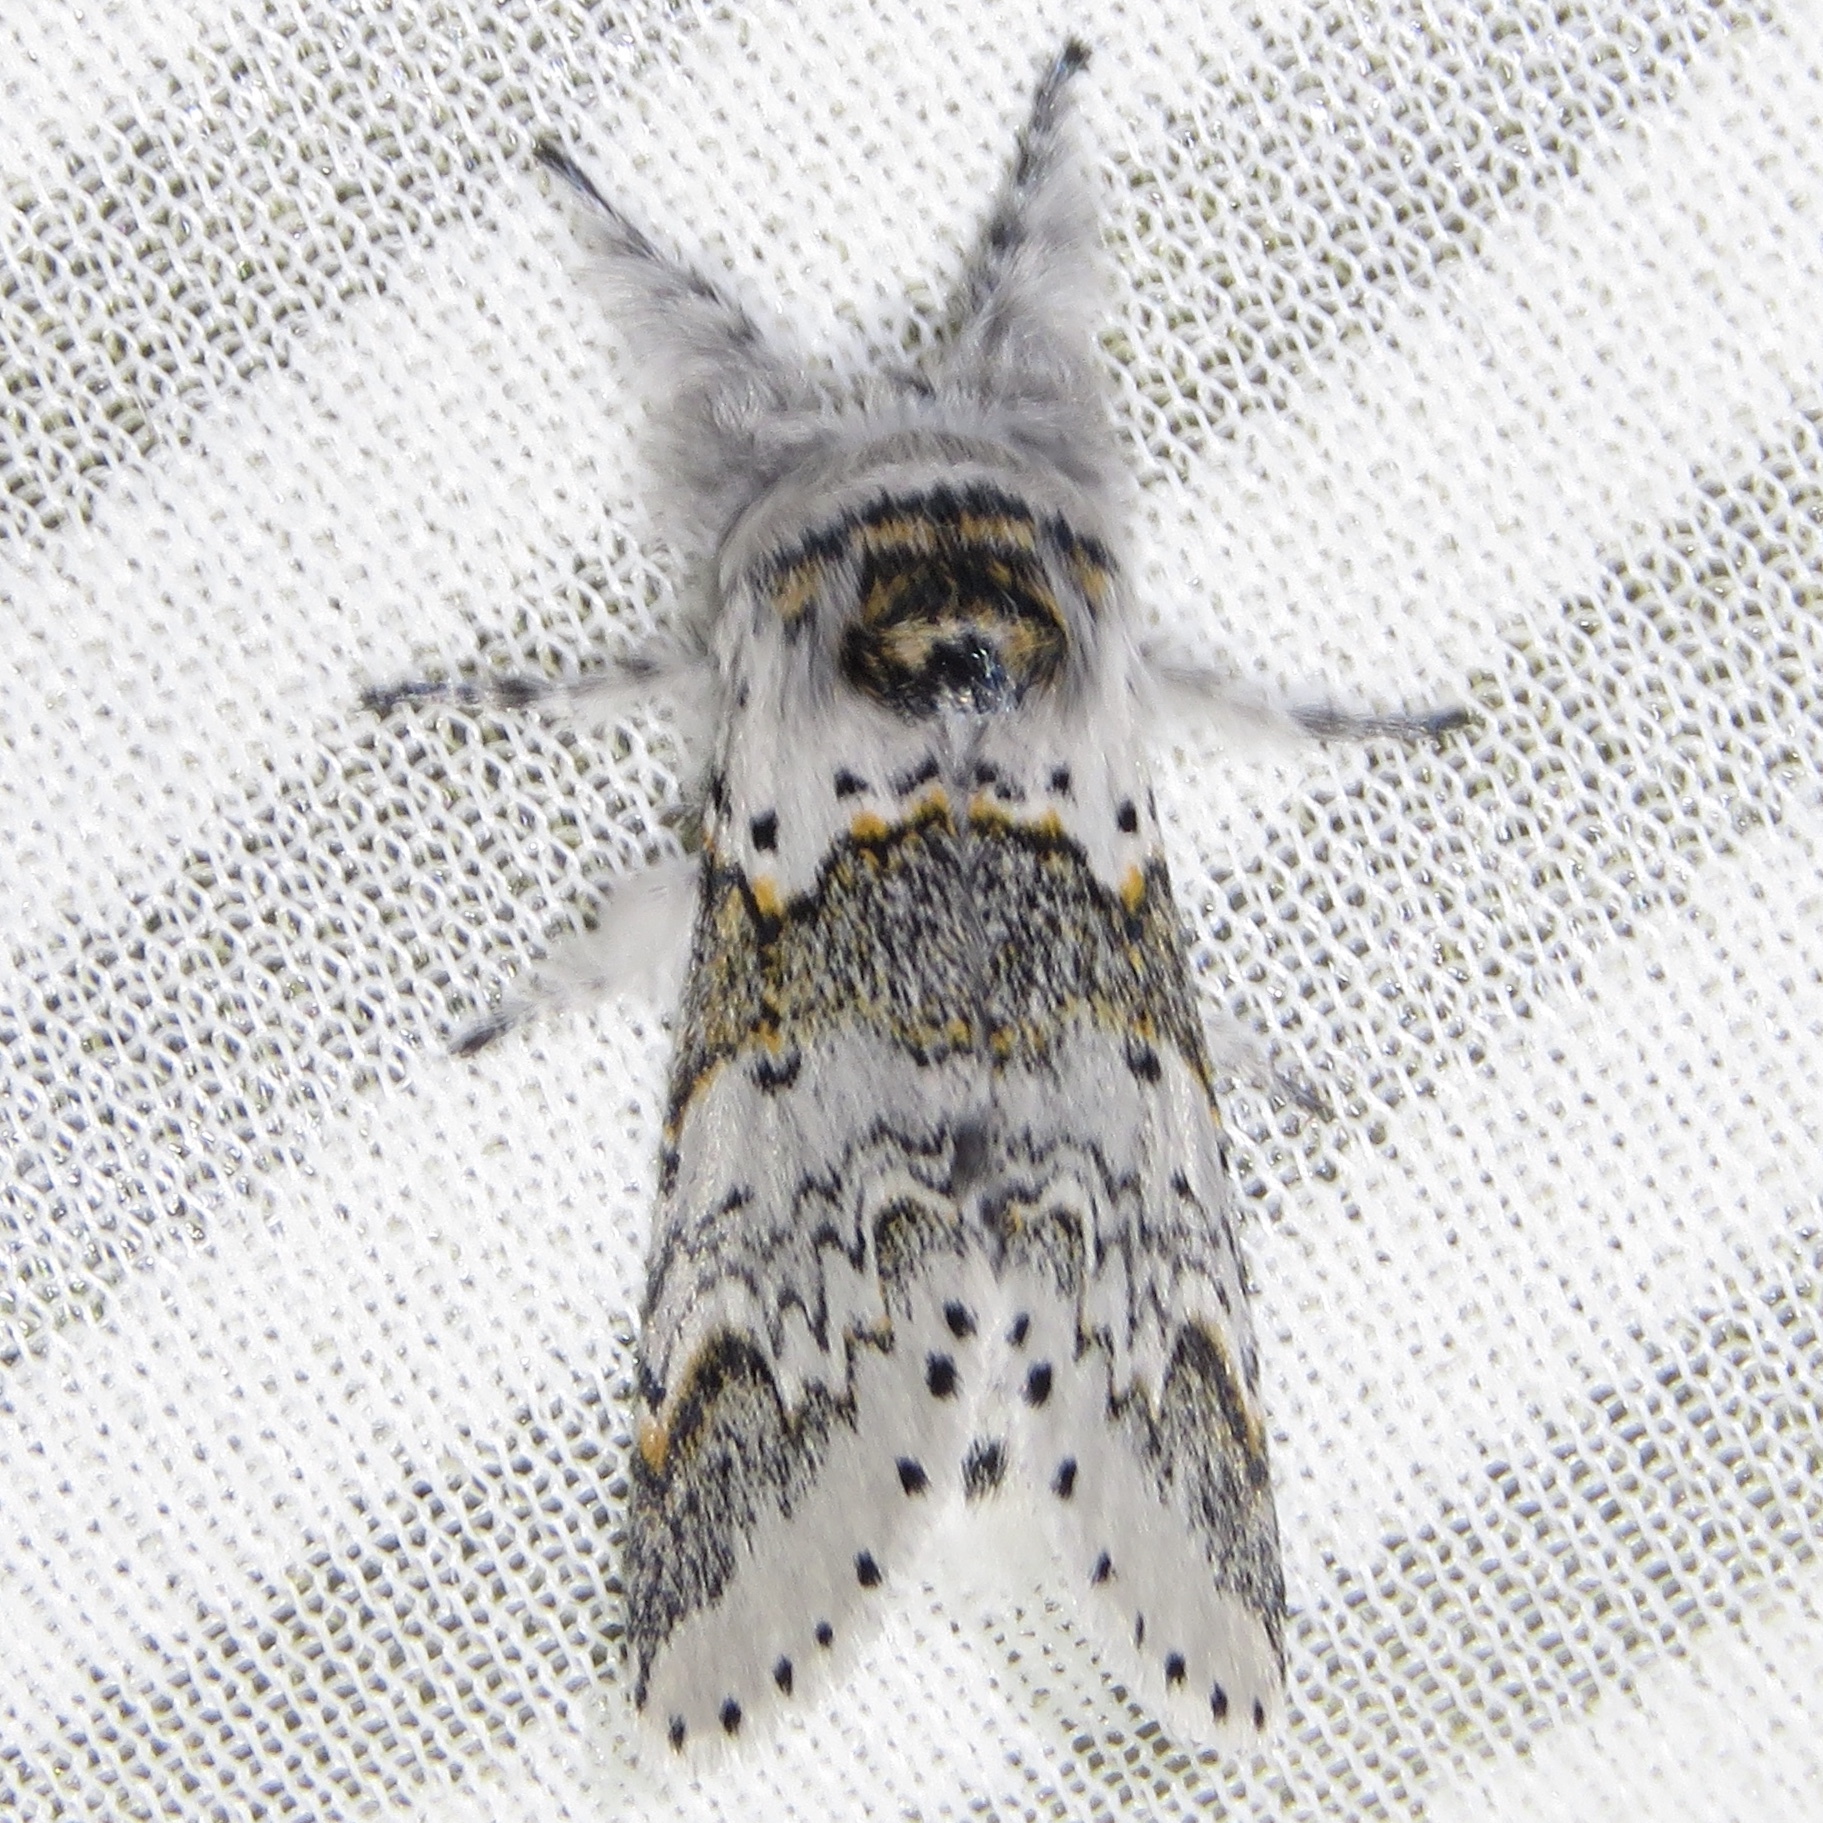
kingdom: Animalia
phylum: Arthropoda
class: Insecta
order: Lepidoptera
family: Notodontidae
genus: Furcula
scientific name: Furcula occidentalis
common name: Western furcula moth
